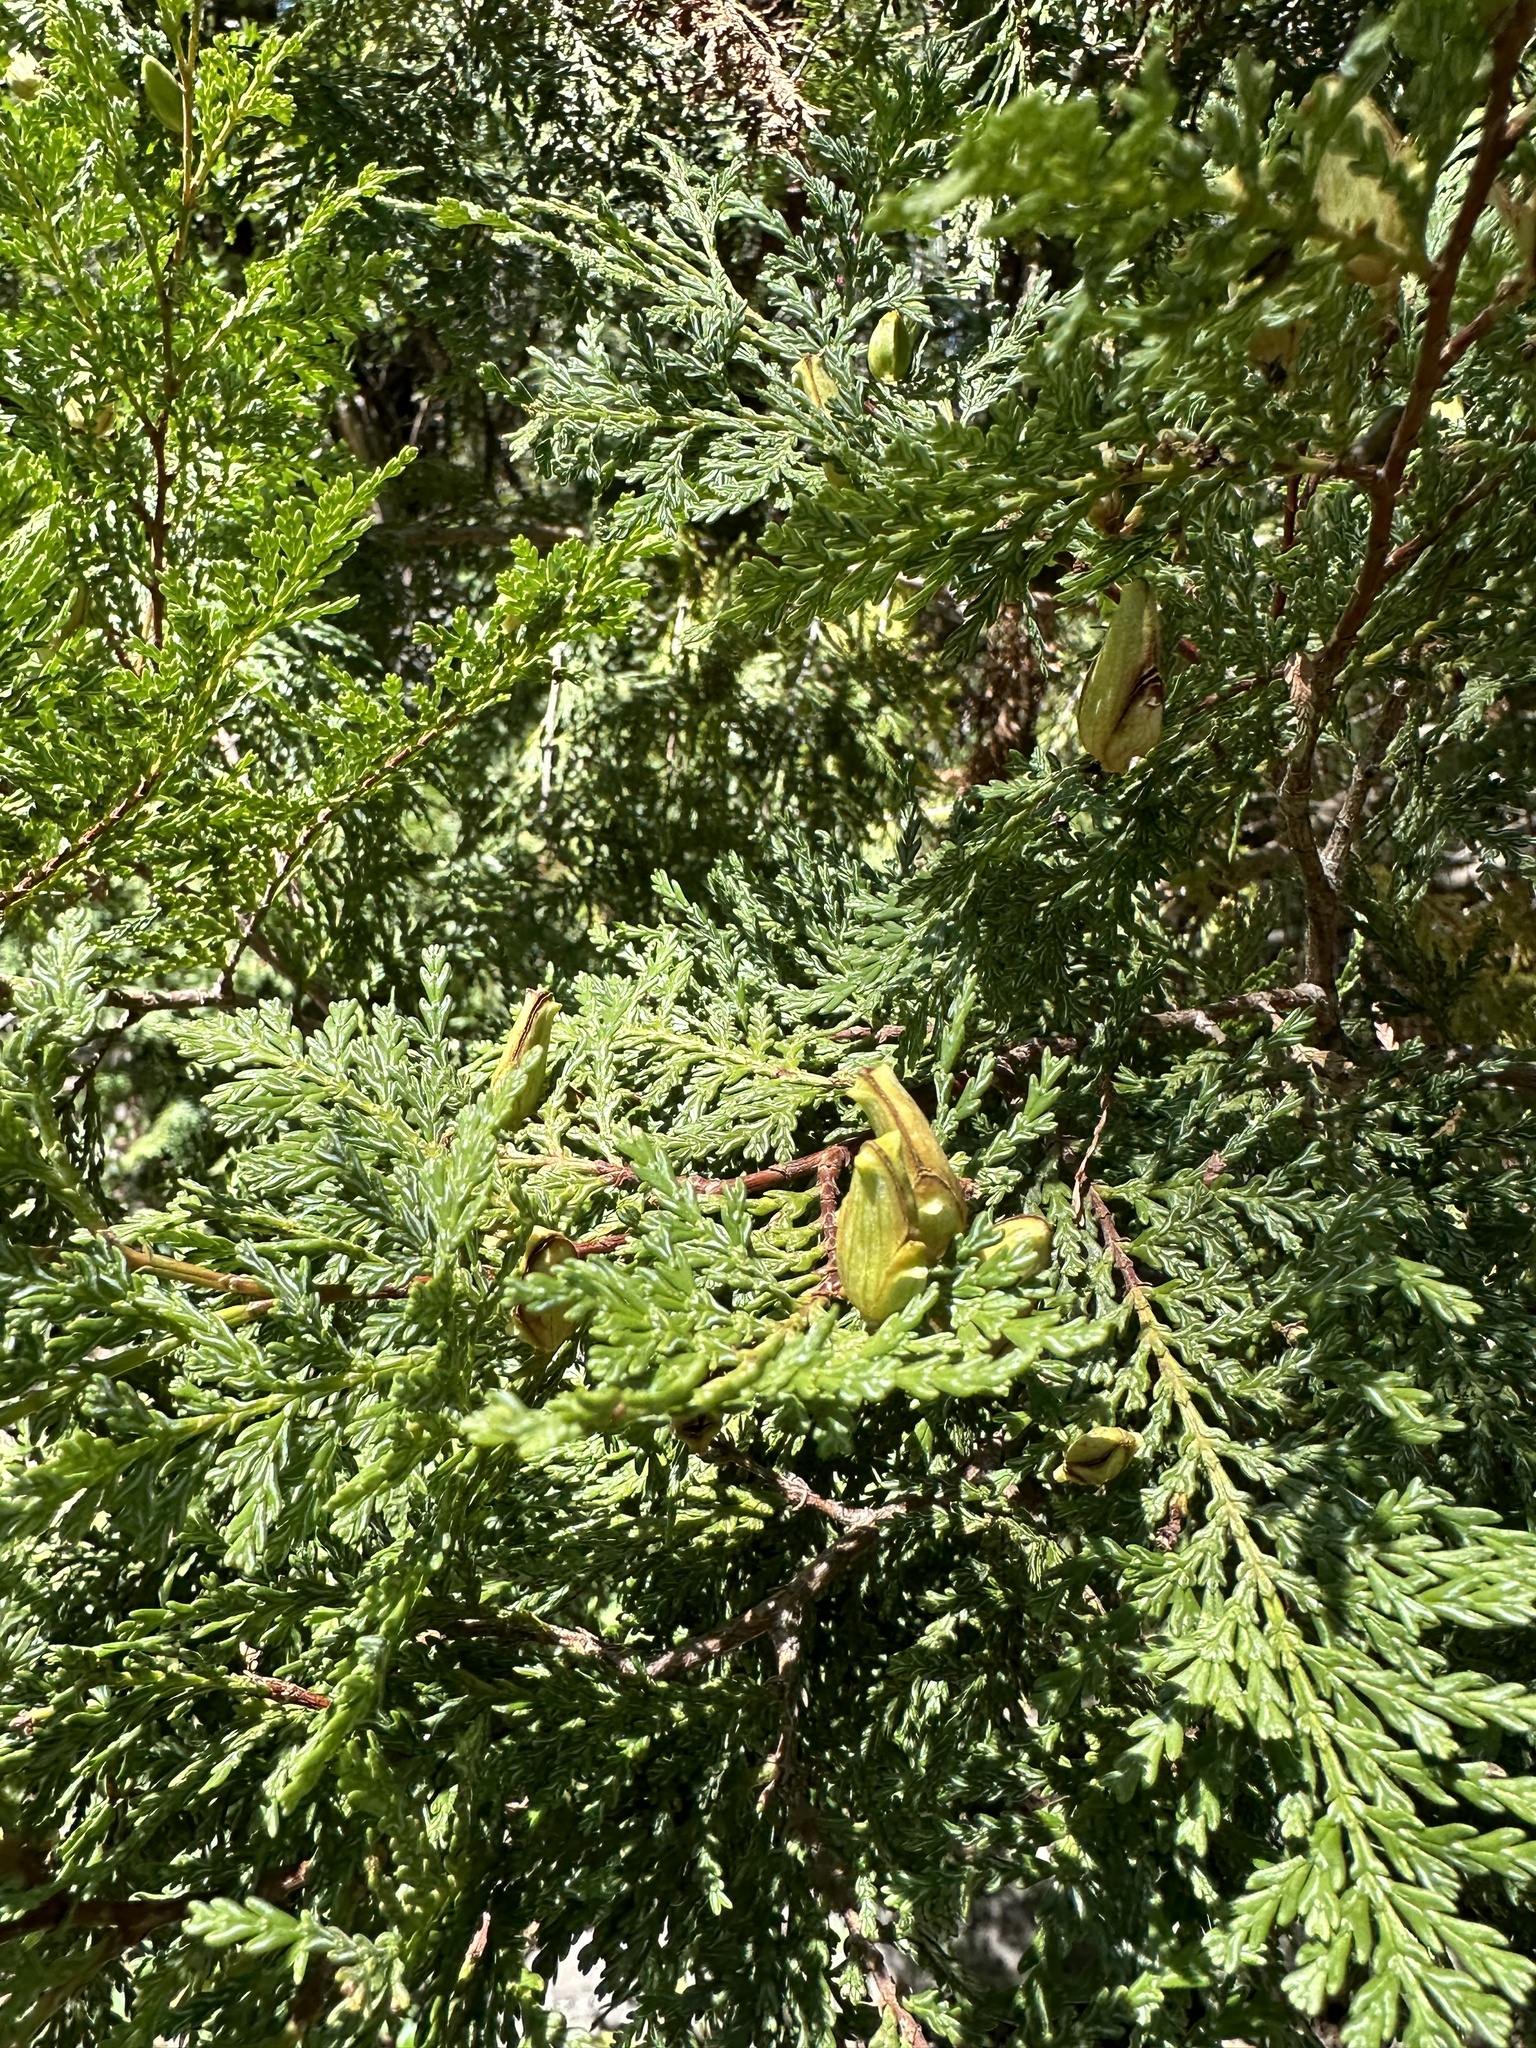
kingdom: Plantae
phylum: Tracheophyta
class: Pinopsida
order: Pinales
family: Cupressaceae
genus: Austrocedrus
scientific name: Austrocedrus chilensis
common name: Chilean incense-cedar
